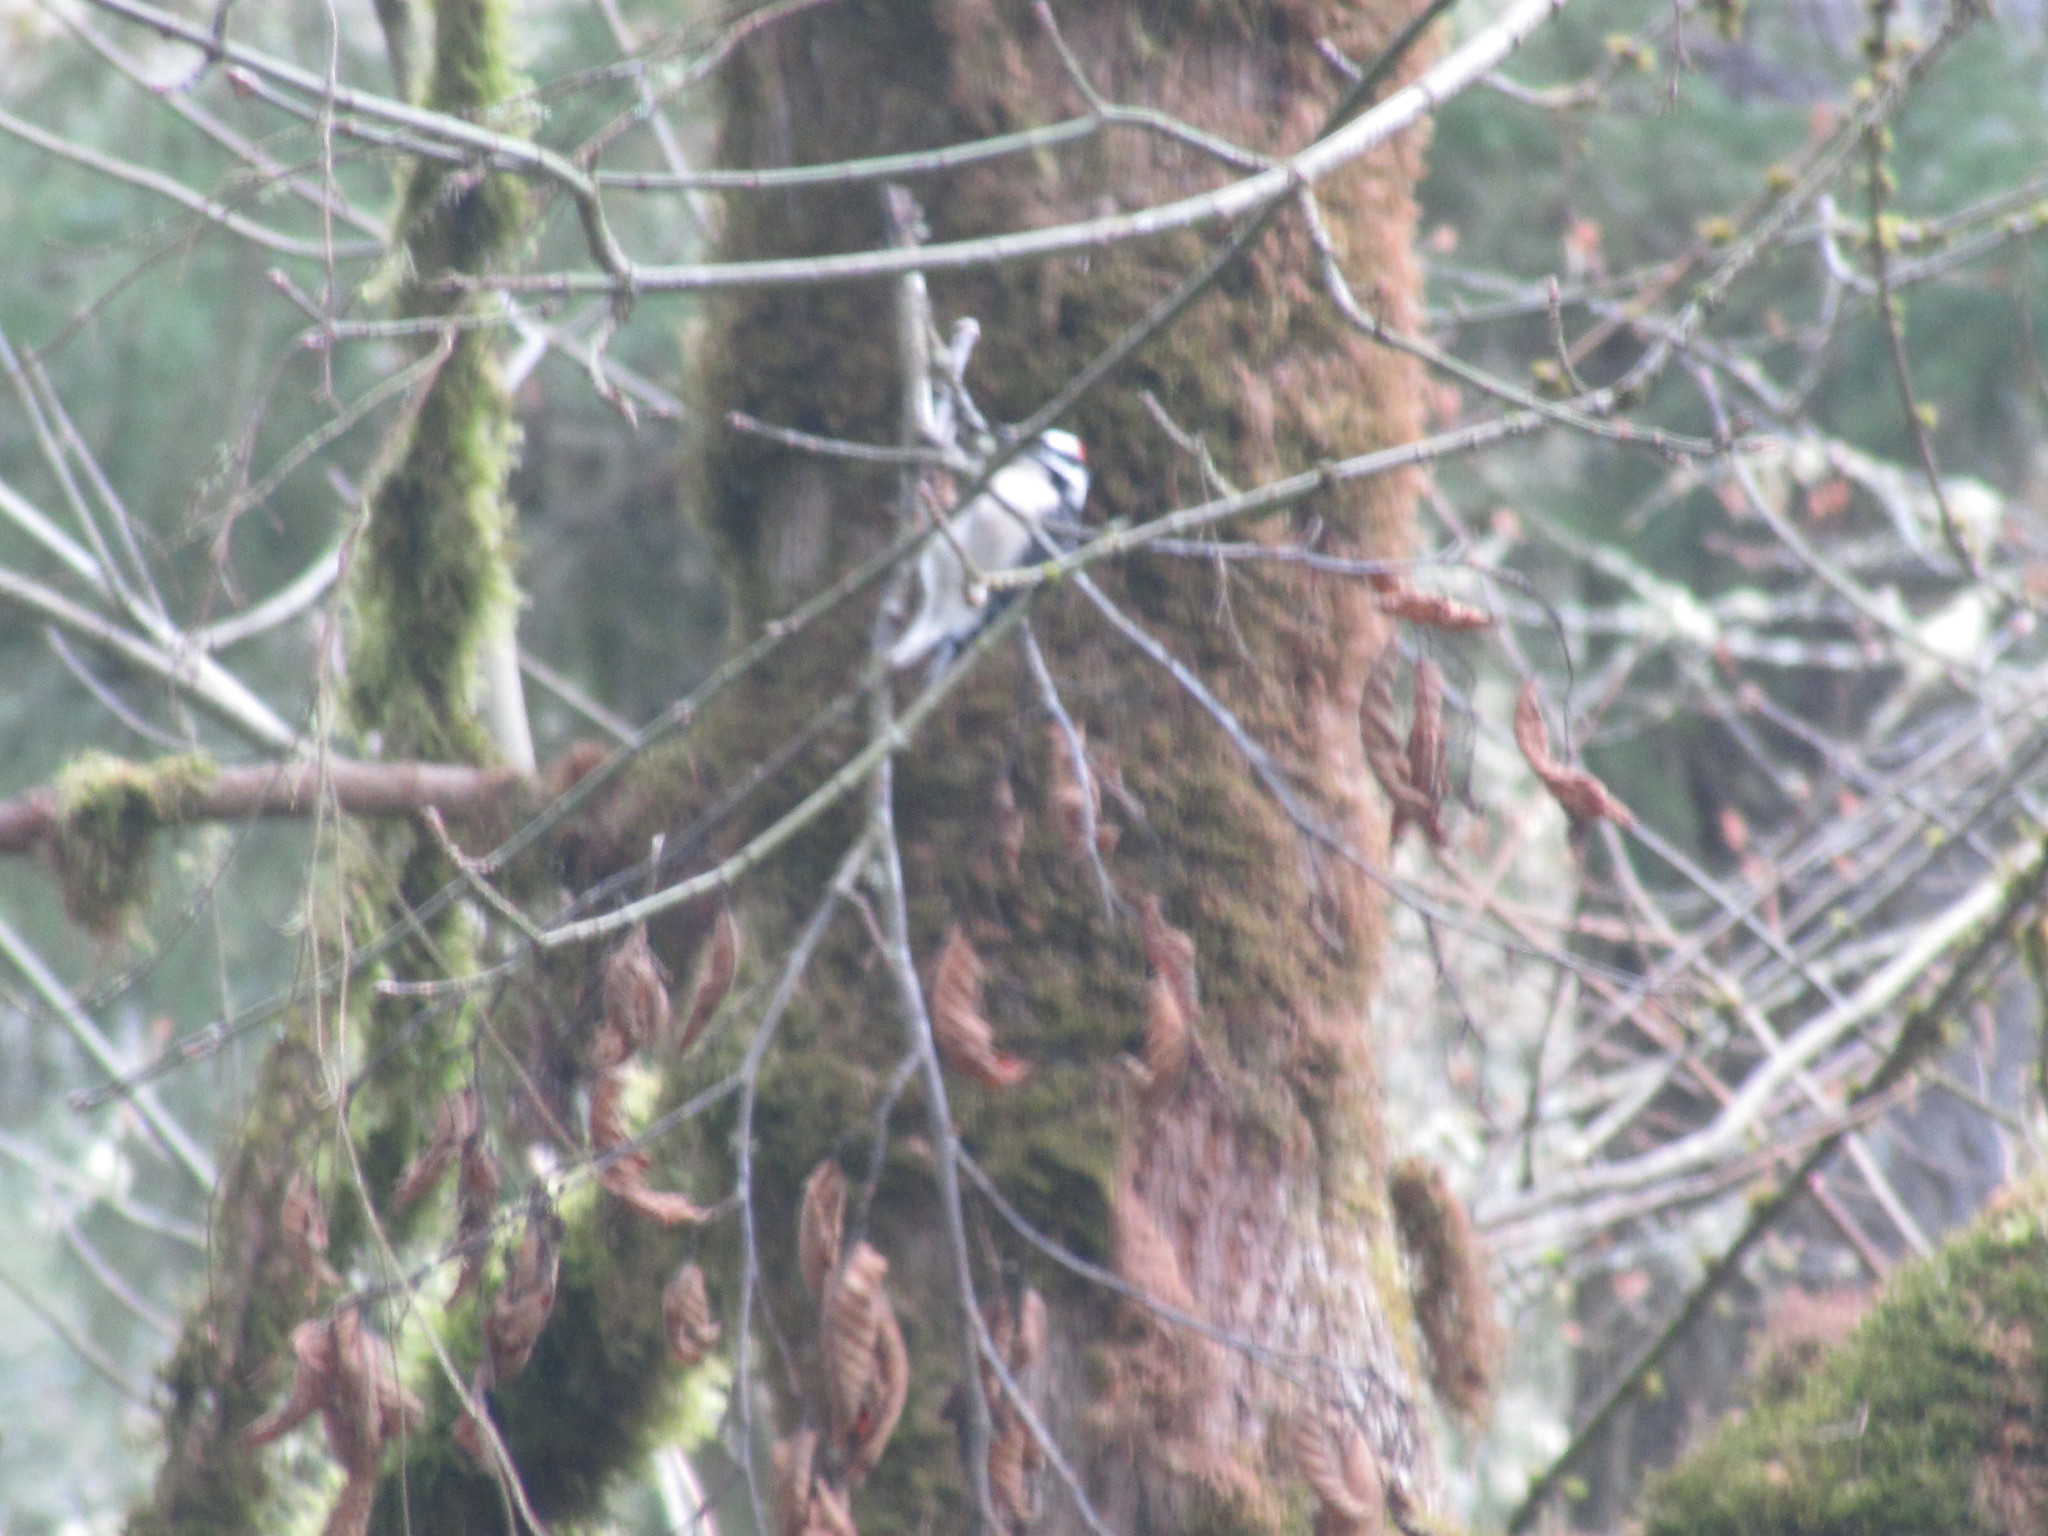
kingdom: Animalia
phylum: Chordata
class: Aves
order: Piciformes
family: Picidae
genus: Dryobates
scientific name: Dryobates pubescens
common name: Downy woodpecker
